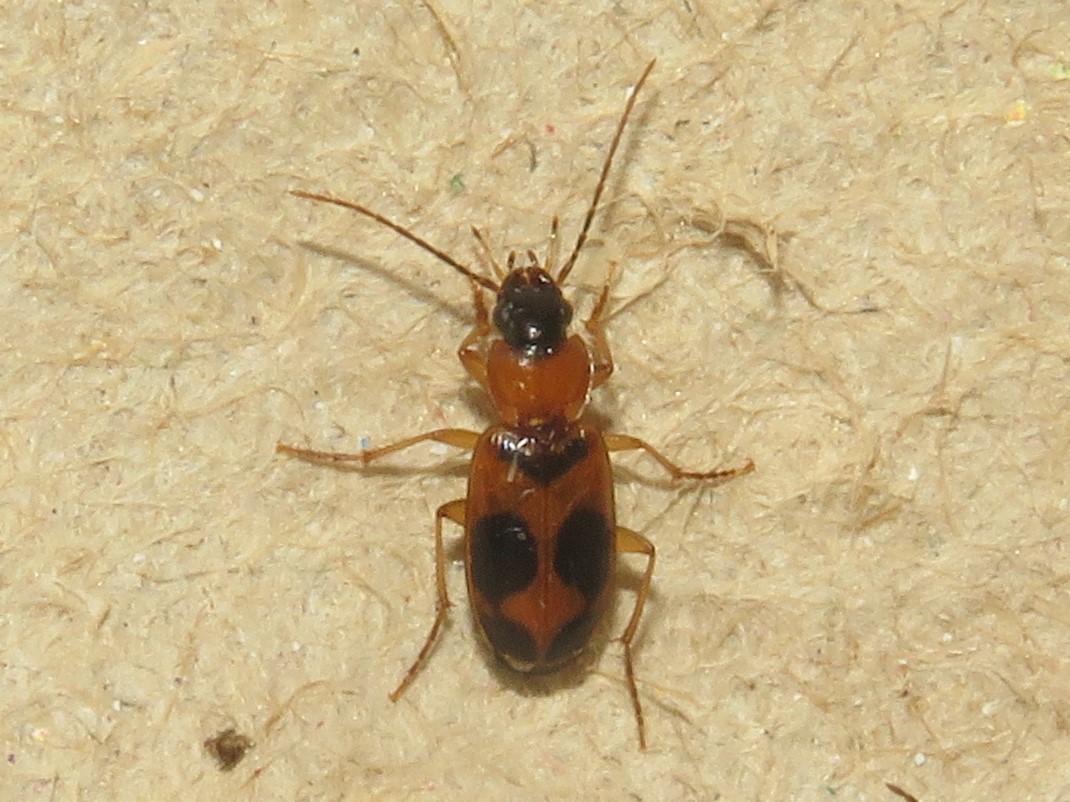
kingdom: Animalia
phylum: Arthropoda
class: Insecta
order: Coleoptera
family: Carabidae
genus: Badister
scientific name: Badister neopulchellus
